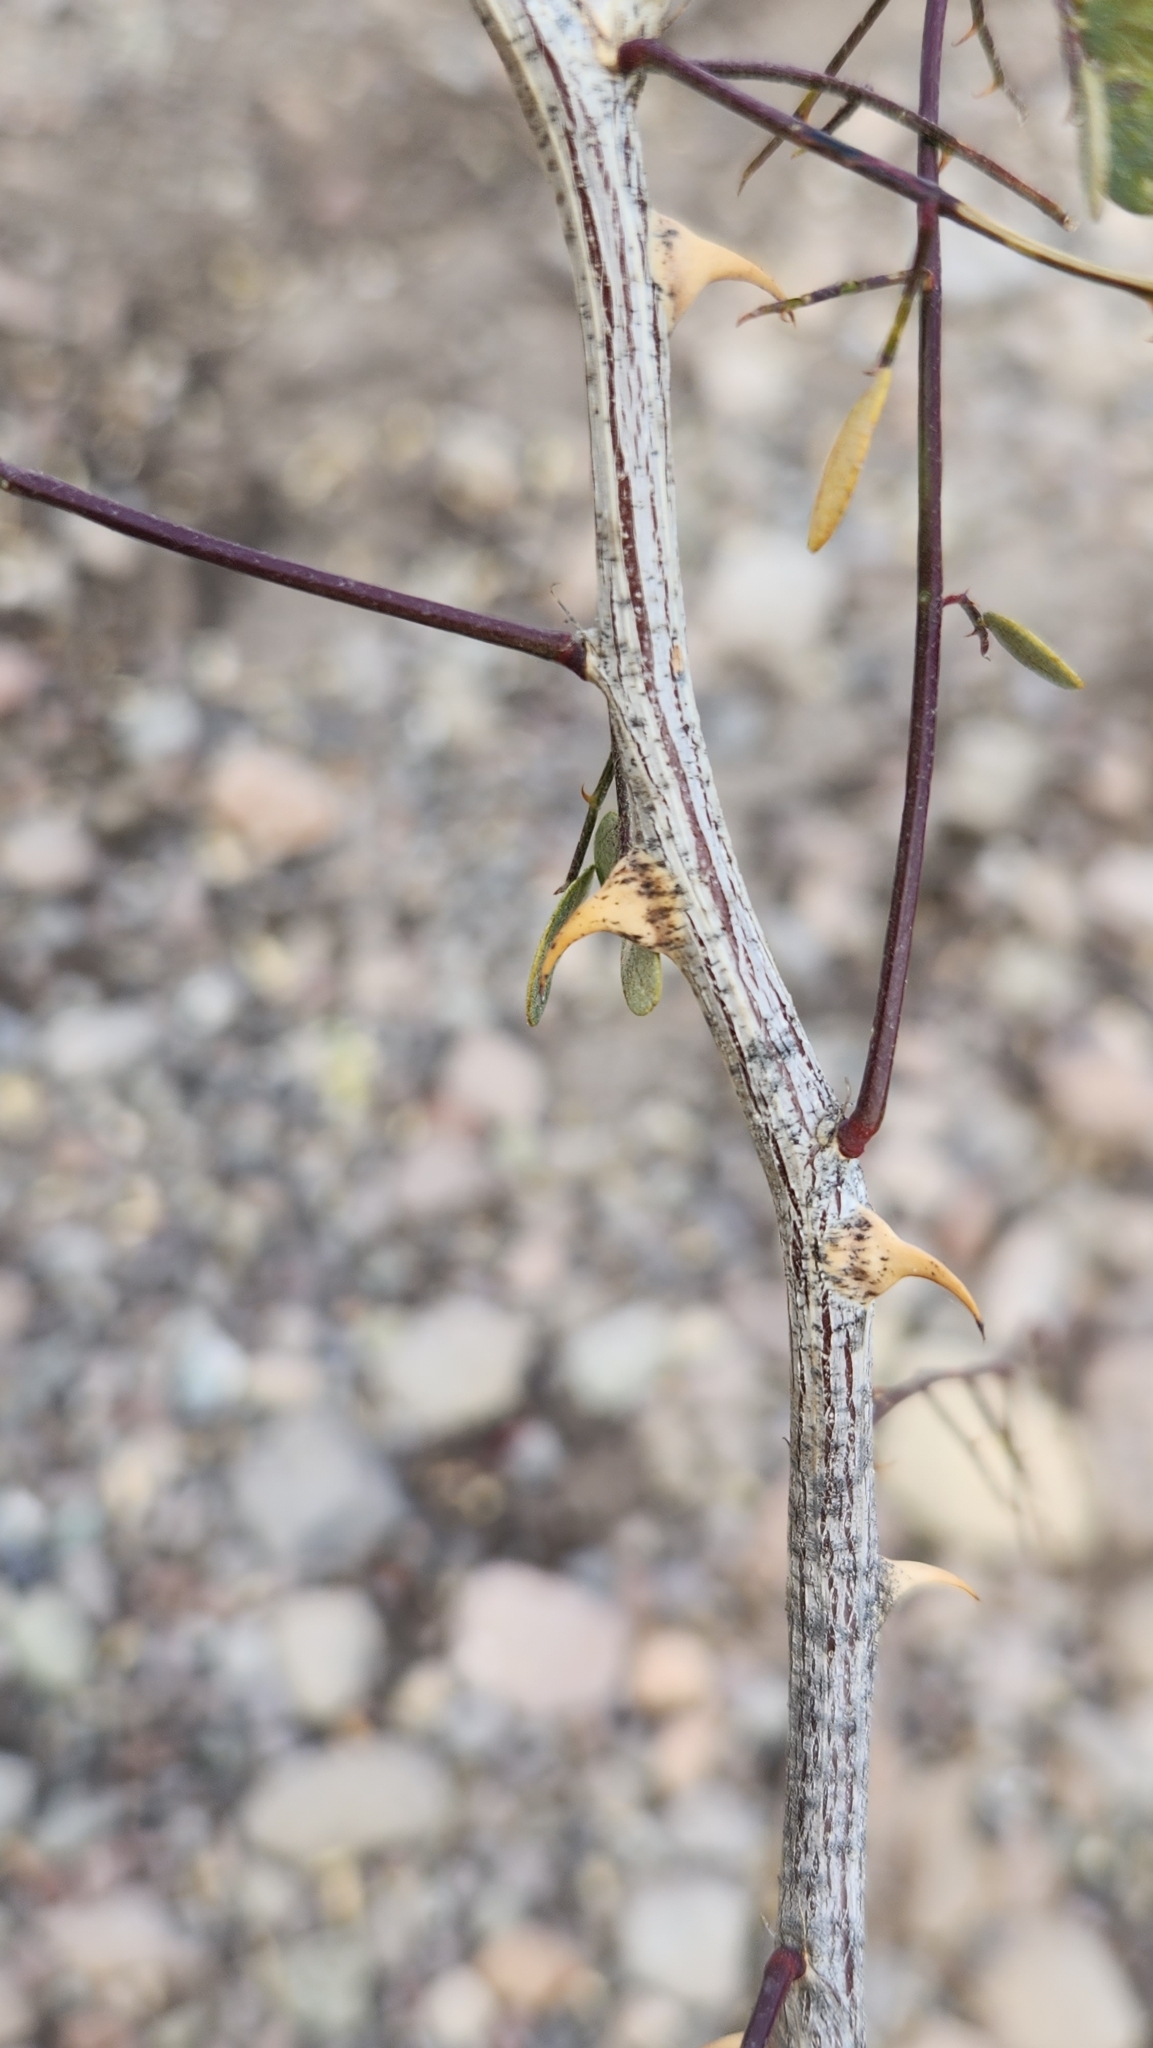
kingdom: Plantae
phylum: Tracheophyta
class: Magnoliopsida
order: Fabales
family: Fabaceae
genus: Mimosa
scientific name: Mimosa distachya
